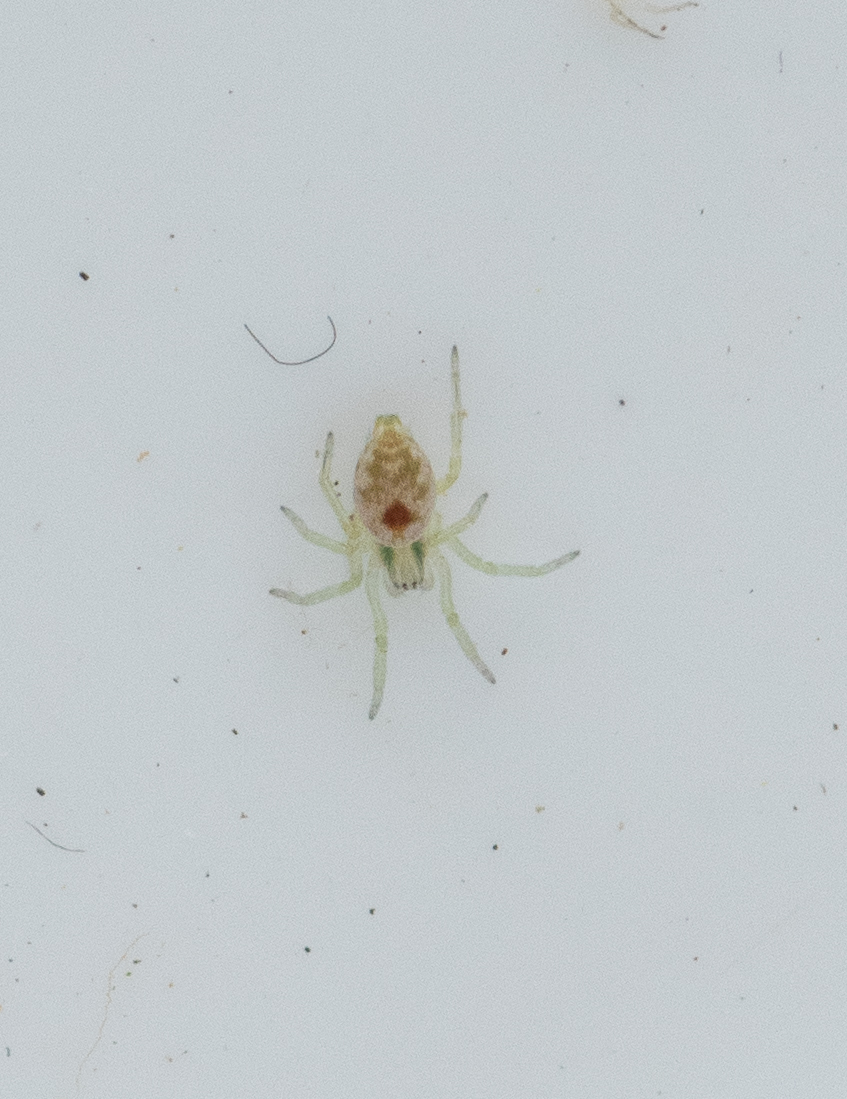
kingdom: Animalia
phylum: Arthropoda
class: Arachnida
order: Araneae
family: Dictynidae
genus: Nigma
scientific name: Nigma puella
